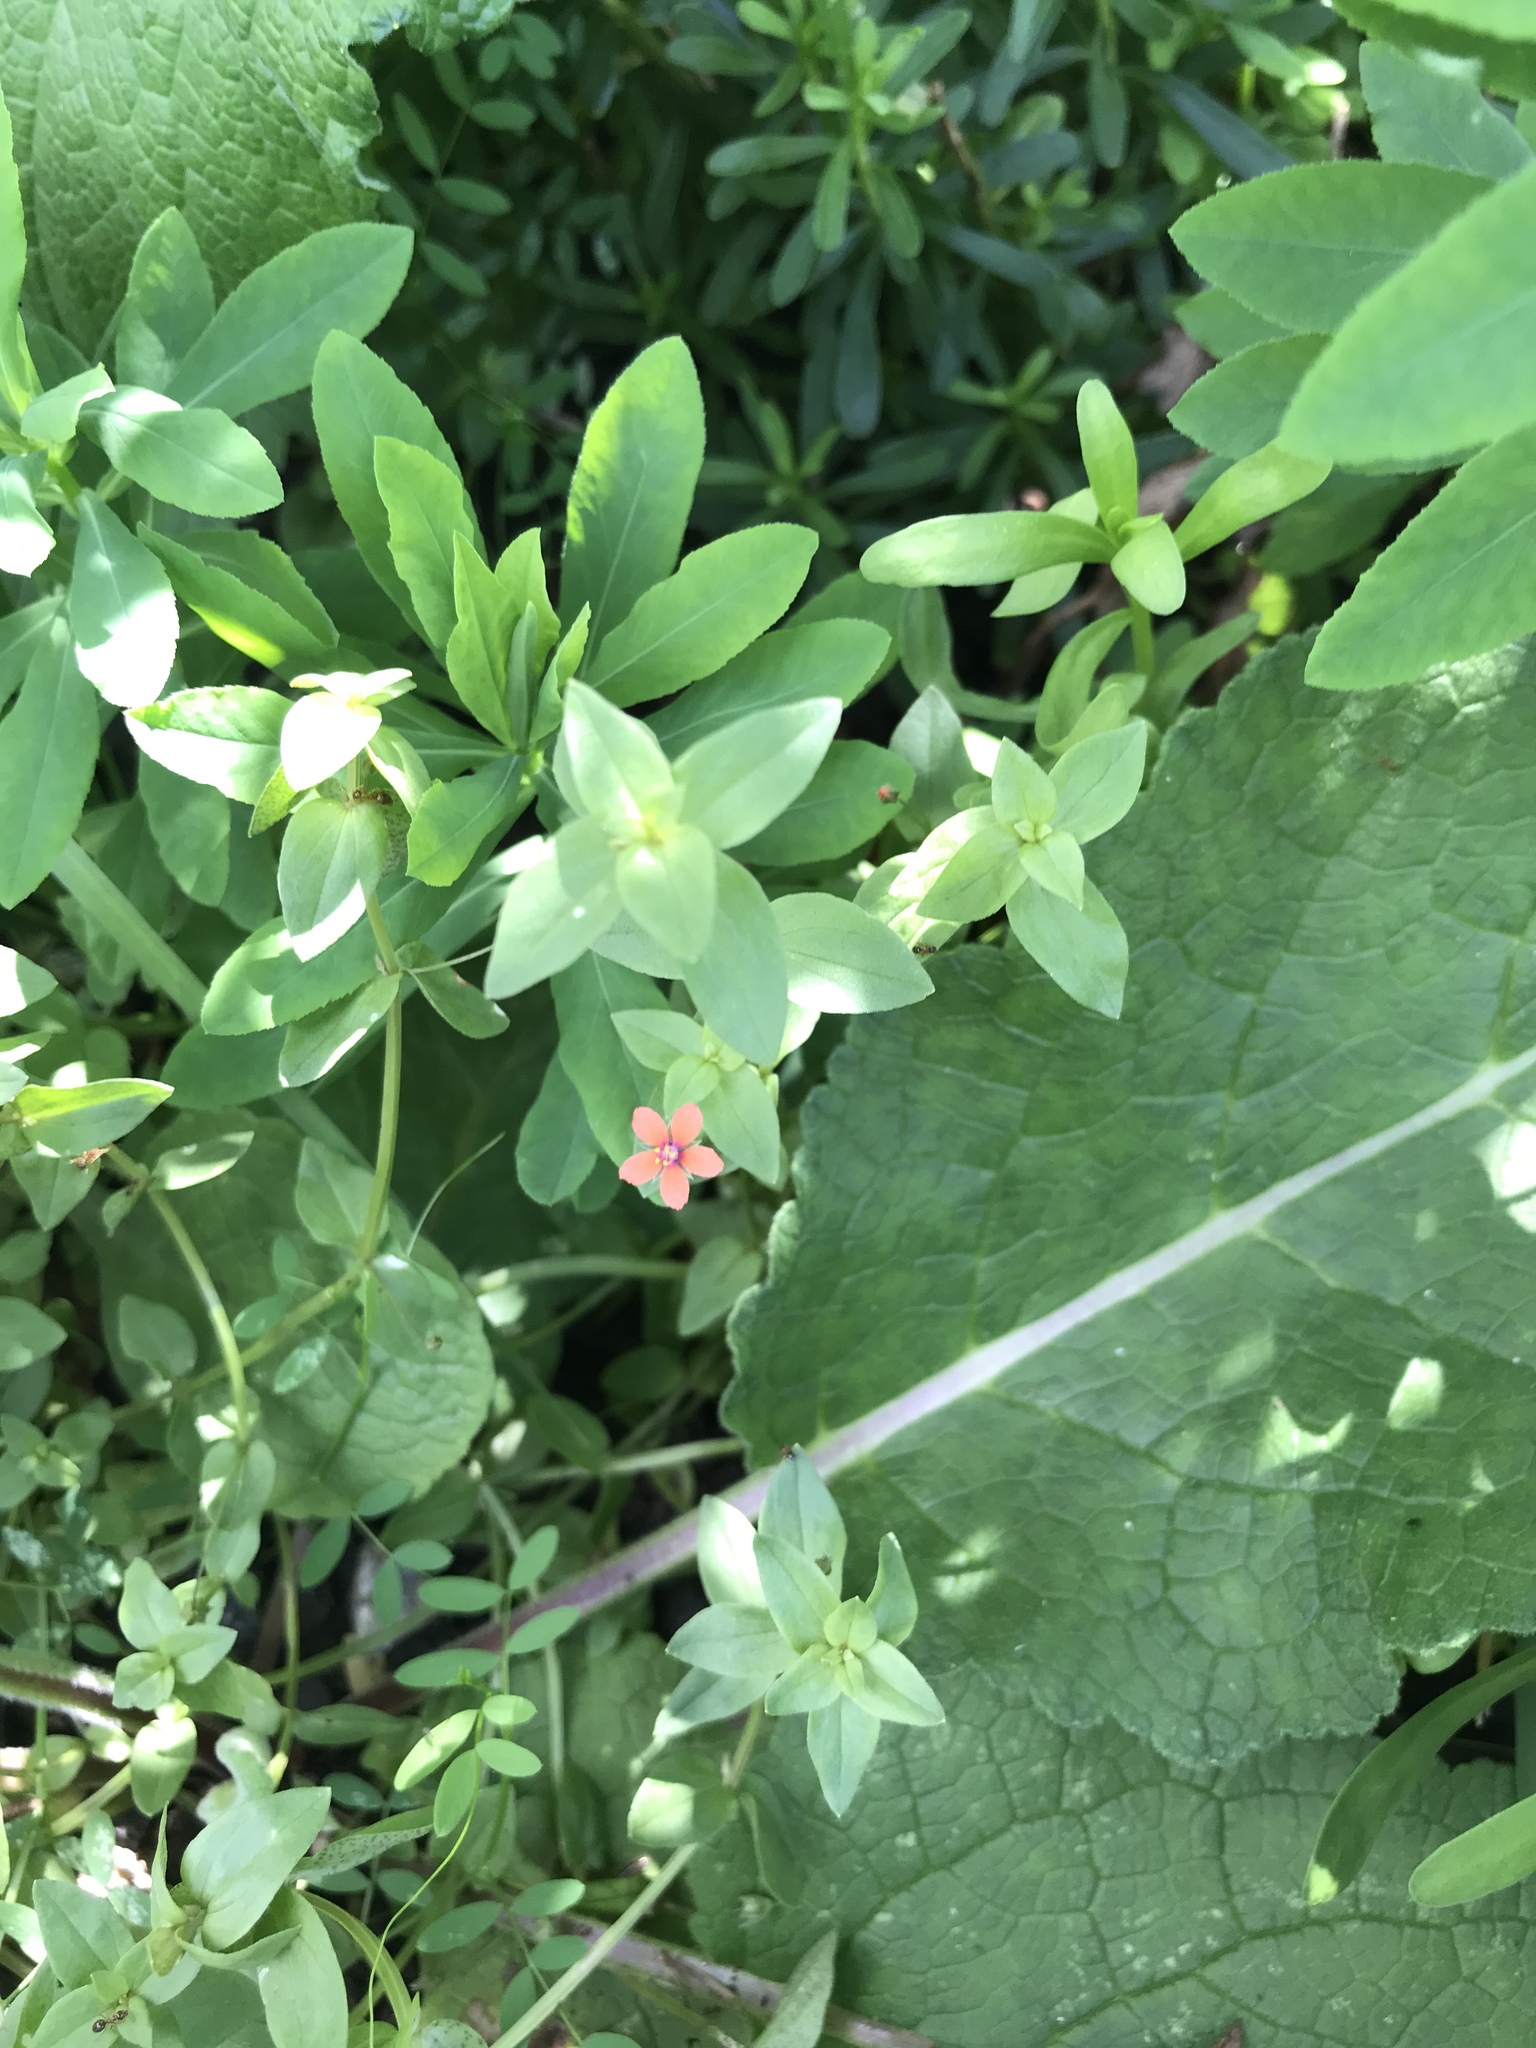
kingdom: Plantae
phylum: Tracheophyta
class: Magnoliopsida
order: Ericales
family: Primulaceae
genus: Lysimachia
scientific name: Lysimachia arvensis
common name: Scarlet pimpernel
